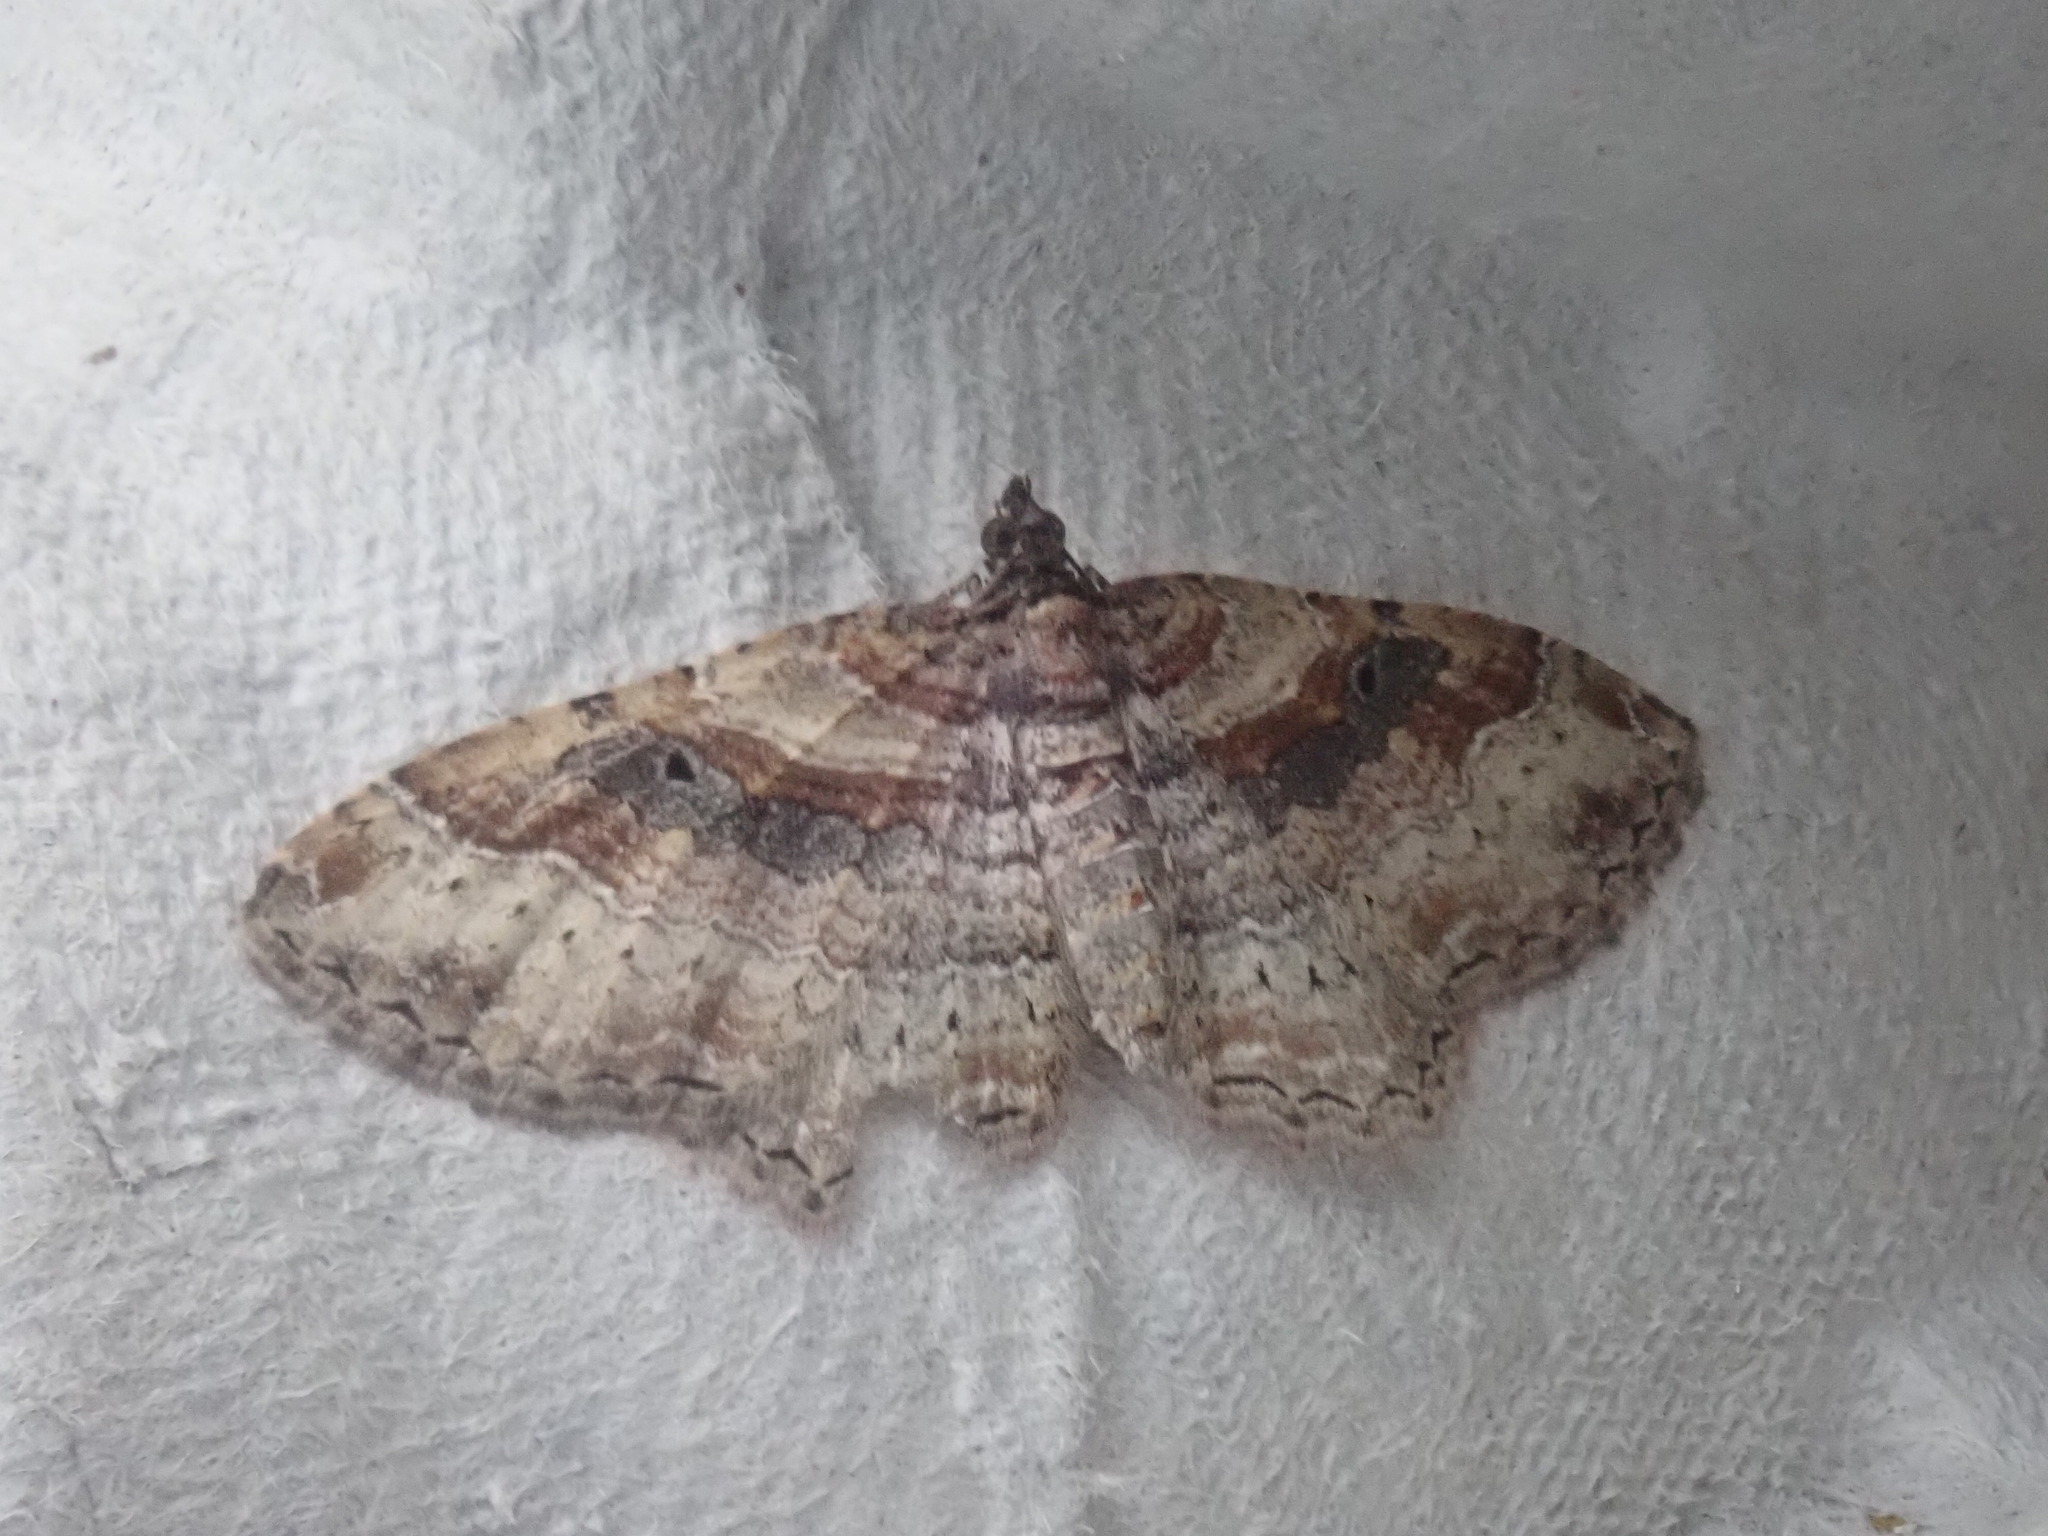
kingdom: Animalia
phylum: Arthropoda
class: Insecta
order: Lepidoptera
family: Geometridae
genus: Costaconvexa
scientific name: Costaconvexa centrostrigaria
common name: Bent-line carpet
